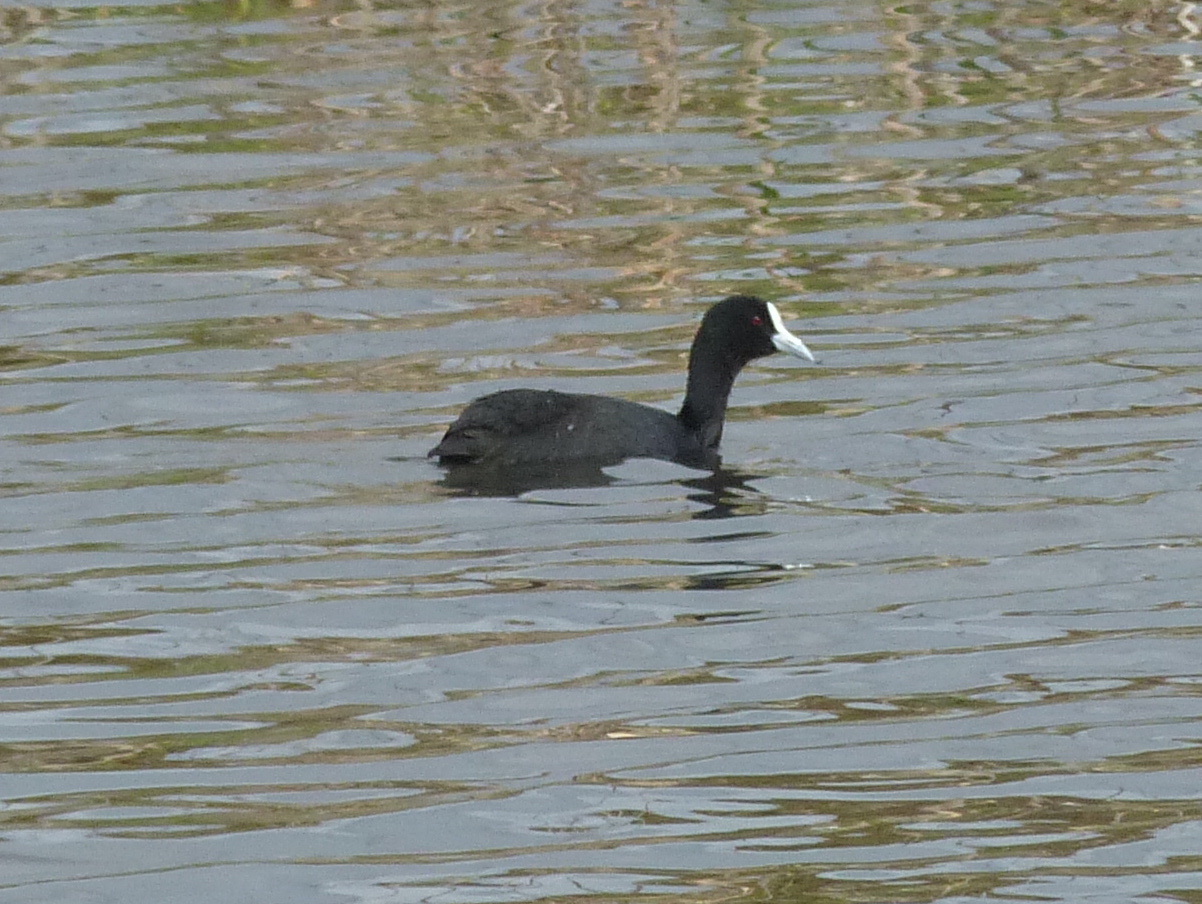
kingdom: Animalia
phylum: Chordata
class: Aves
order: Gruiformes
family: Rallidae
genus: Fulica
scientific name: Fulica atra
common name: Eurasian coot
